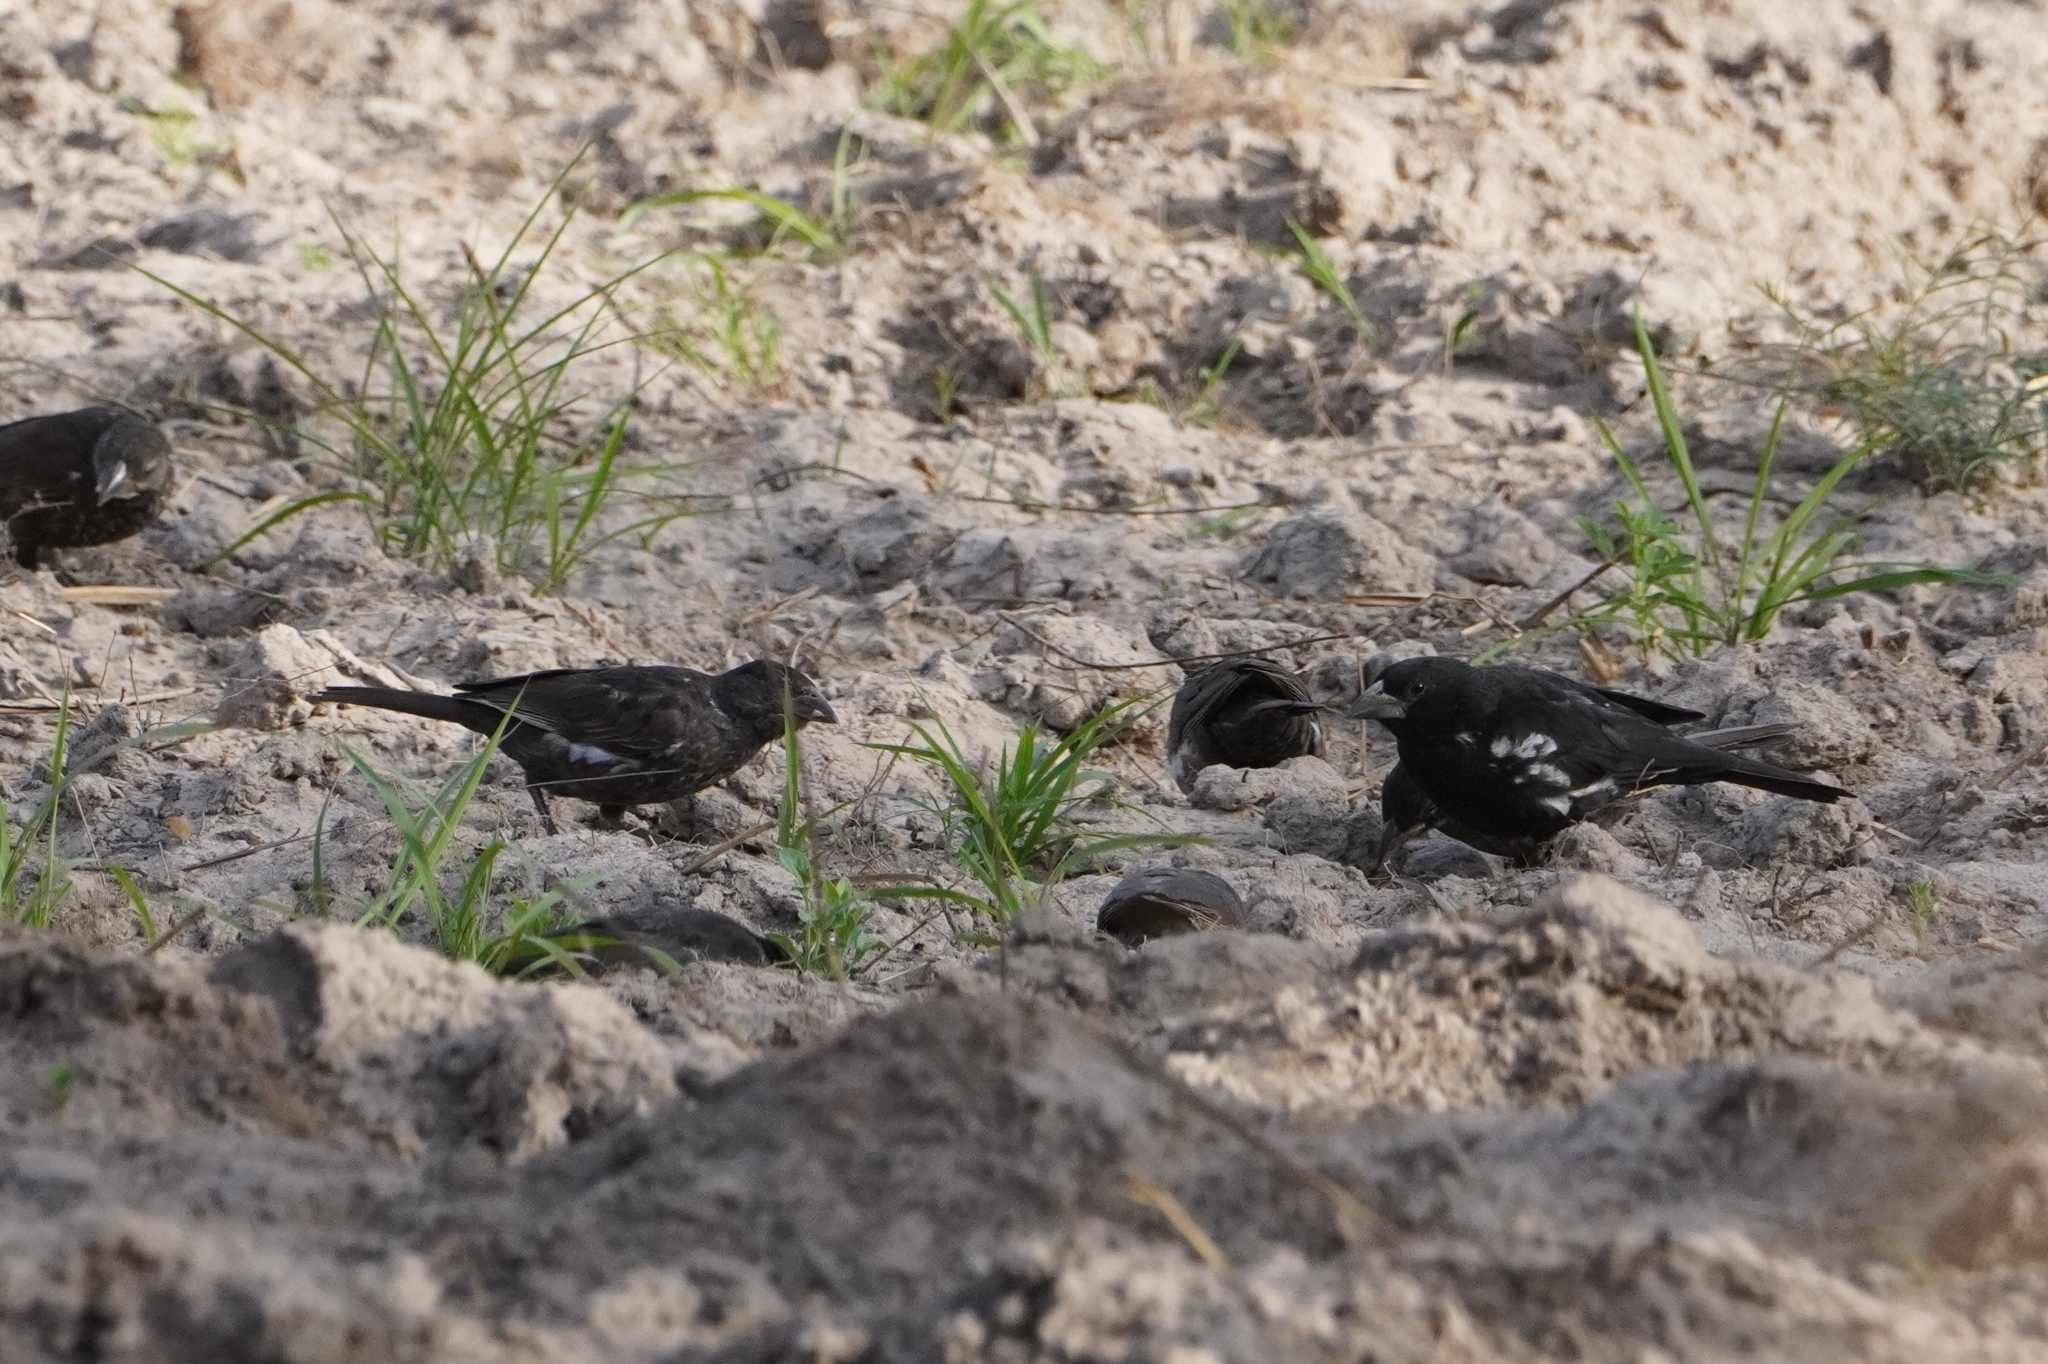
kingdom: Animalia
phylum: Chordata
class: Aves
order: Passeriformes
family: Ploceidae
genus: Bubalornis
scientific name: Bubalornis albirostris
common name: White-billed buffalo weaver
